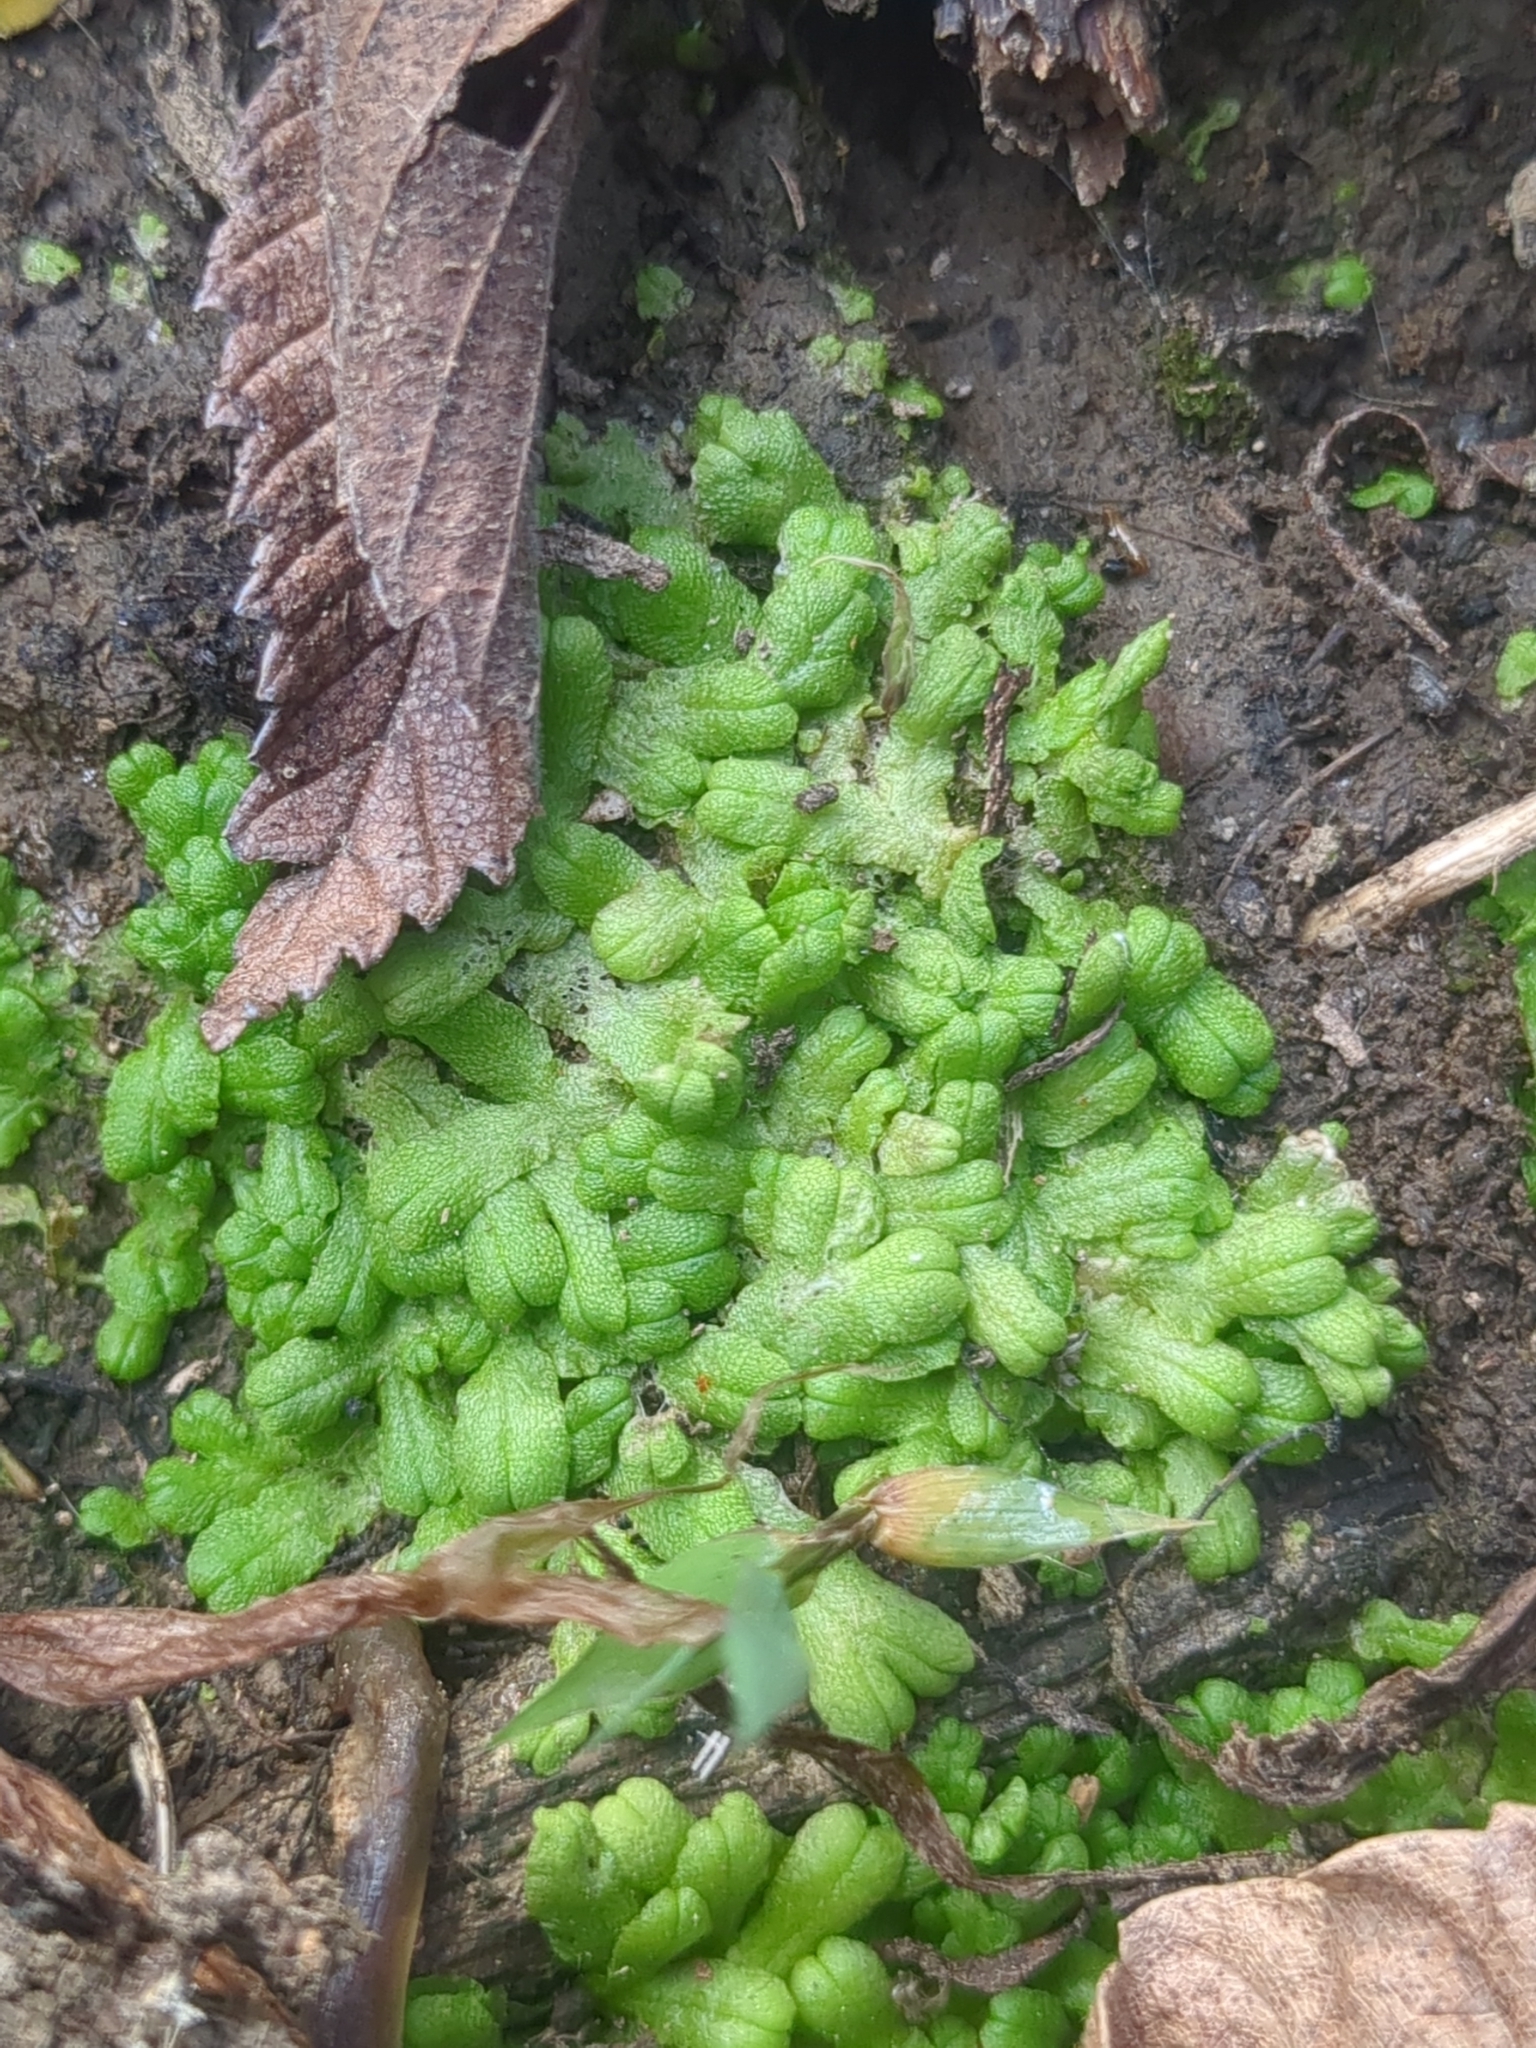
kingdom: Plantae
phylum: Marchantiophyta
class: Marchantiopsida
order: Marchantiales
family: Ricciaceae
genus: Ricciocarpos
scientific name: Ricciocarpos natans
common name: Purple-fringed liverwort
